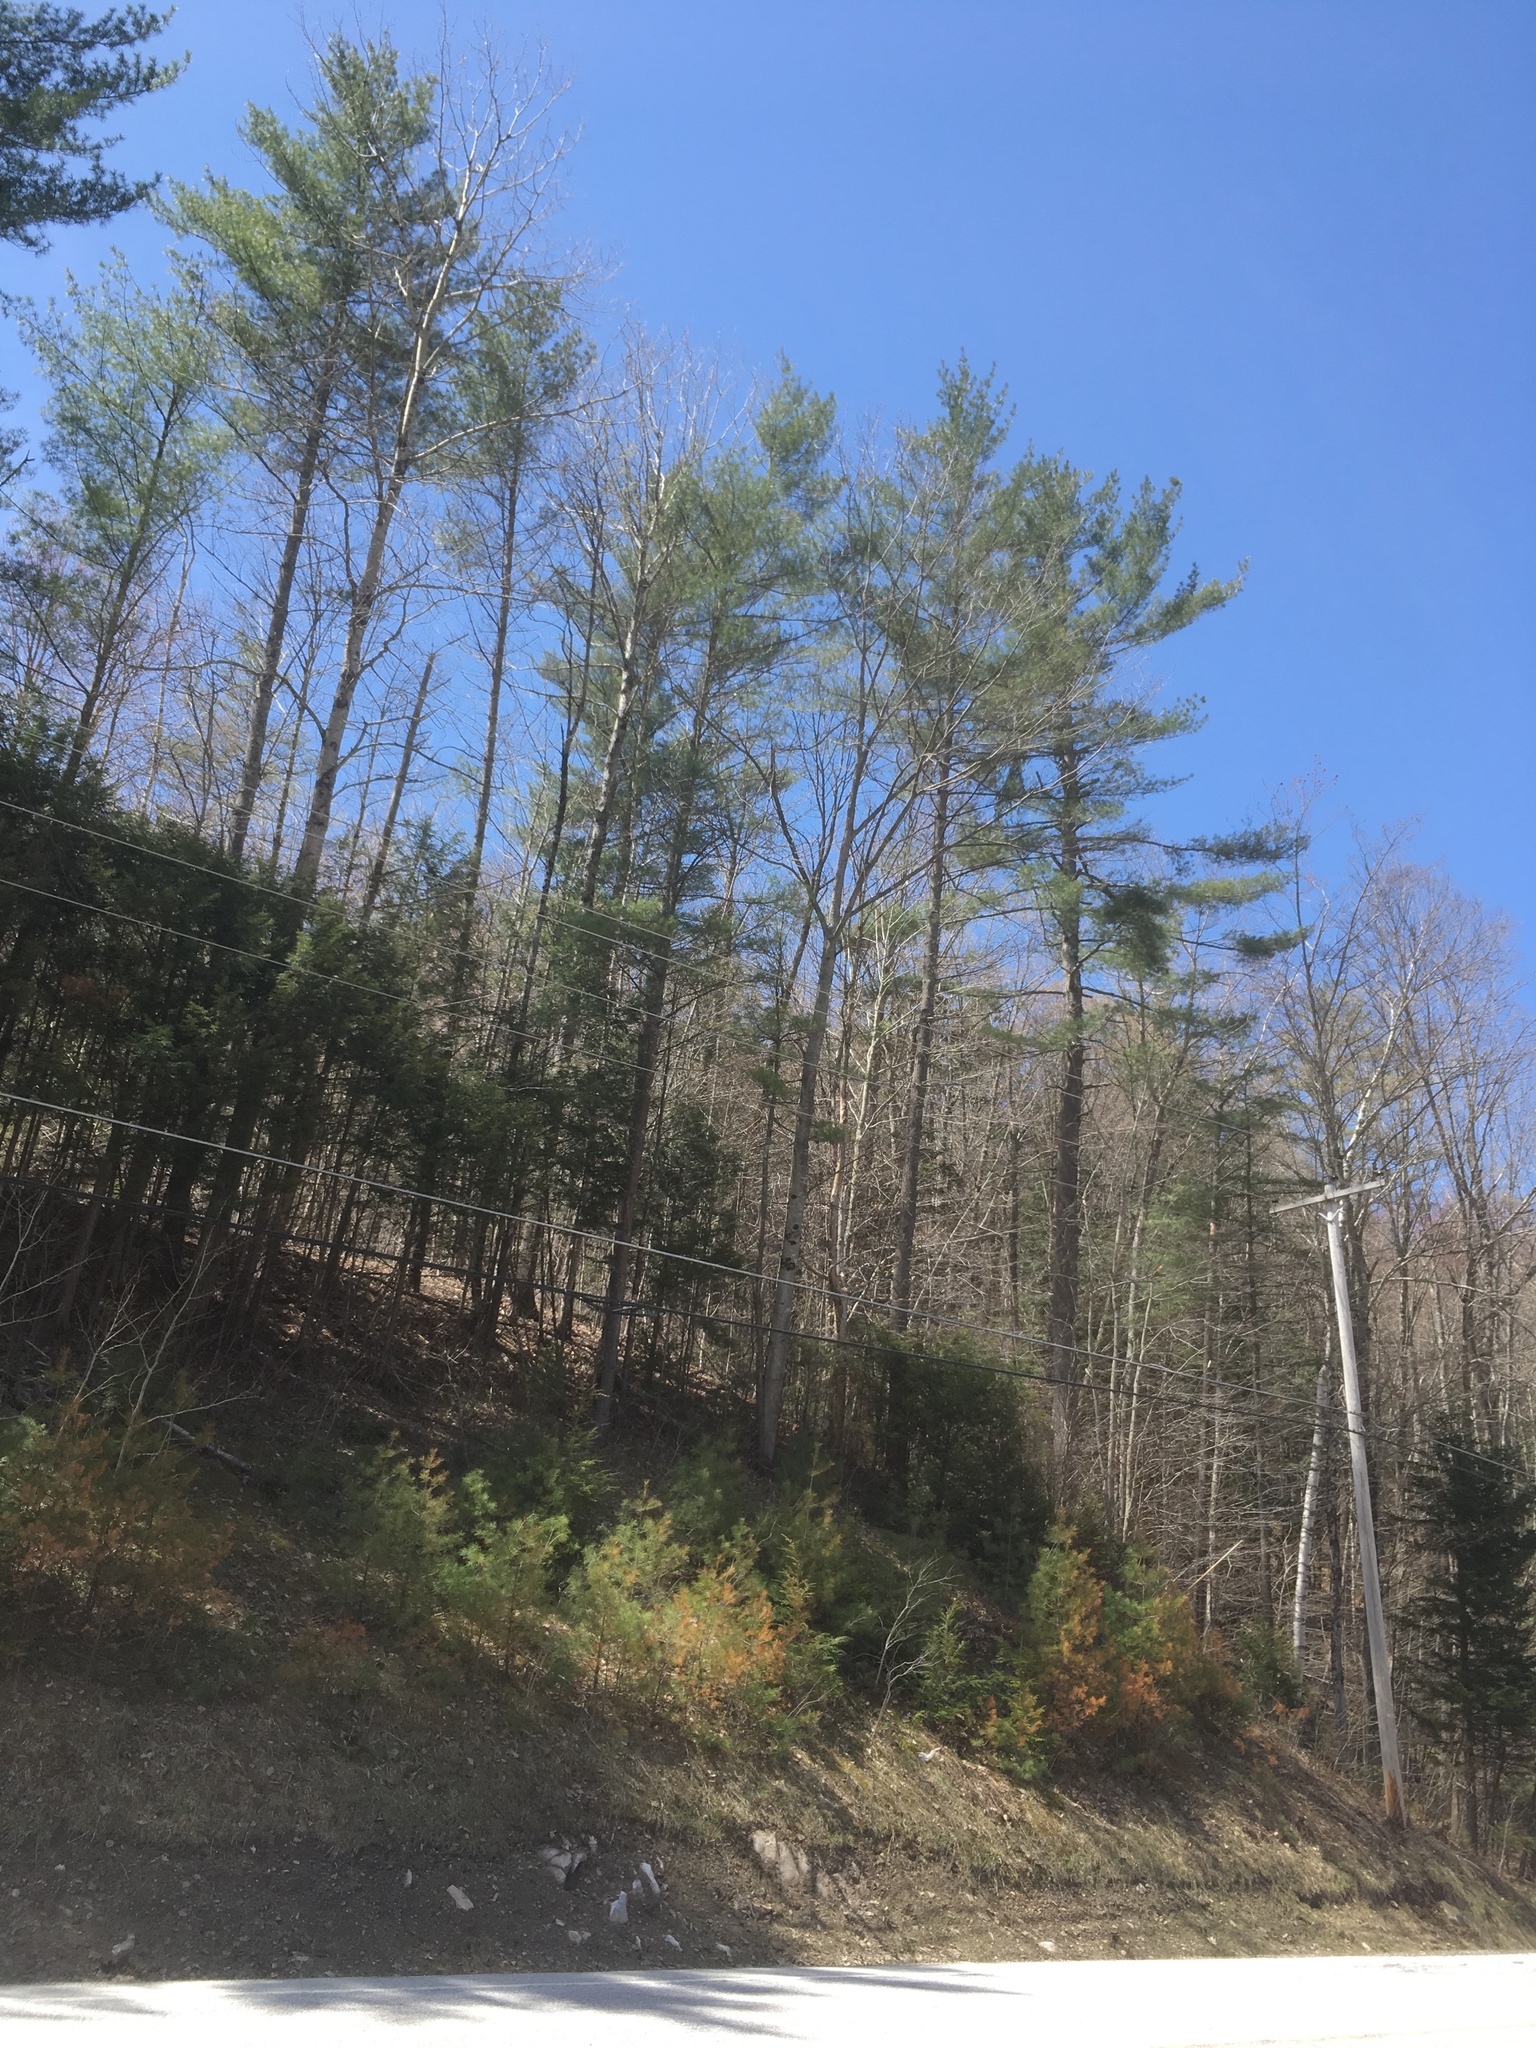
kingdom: Plantae
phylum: Tracheophyta
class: Pinopsida
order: Pinales
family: Pinaceae
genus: Pinus
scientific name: Pinus strobus
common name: Weymouth pine
